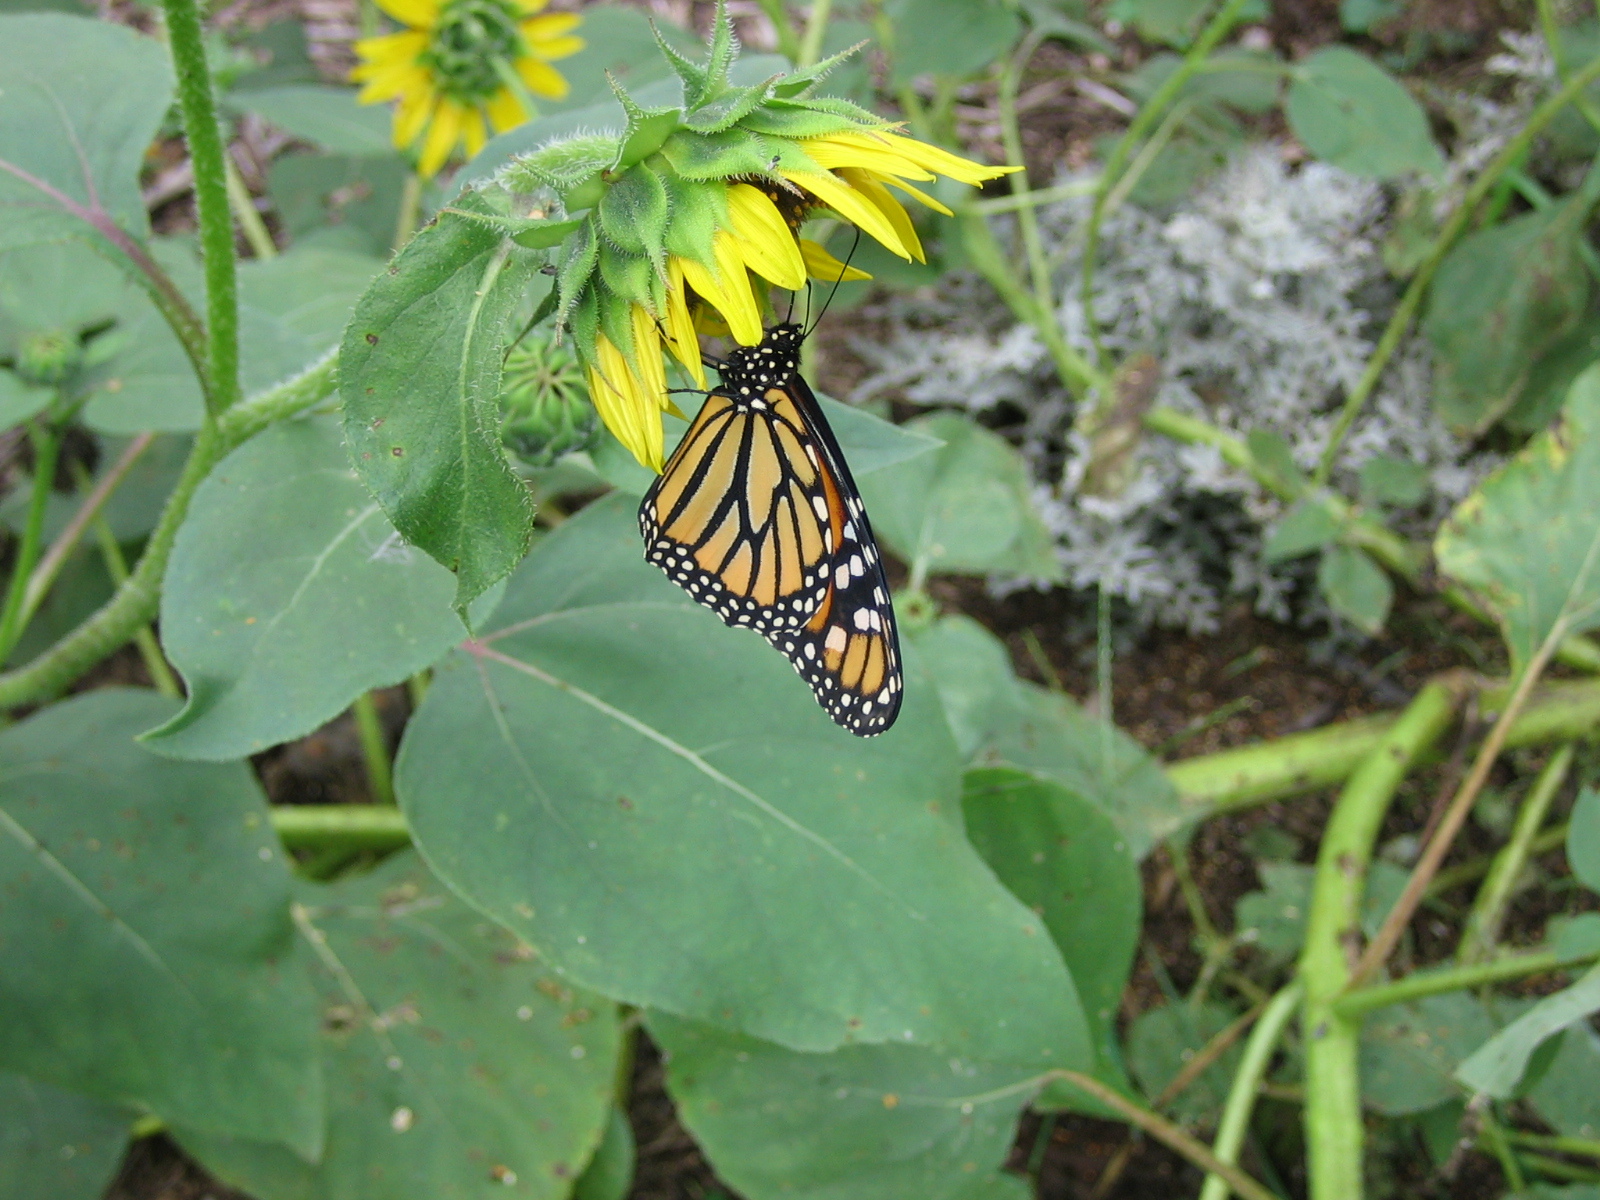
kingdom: Animalia
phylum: Arthropoda
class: Insecta
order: Lepidoptera
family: Nymphalidae
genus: Danaus
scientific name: Danaus plexippus
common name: Monarch
